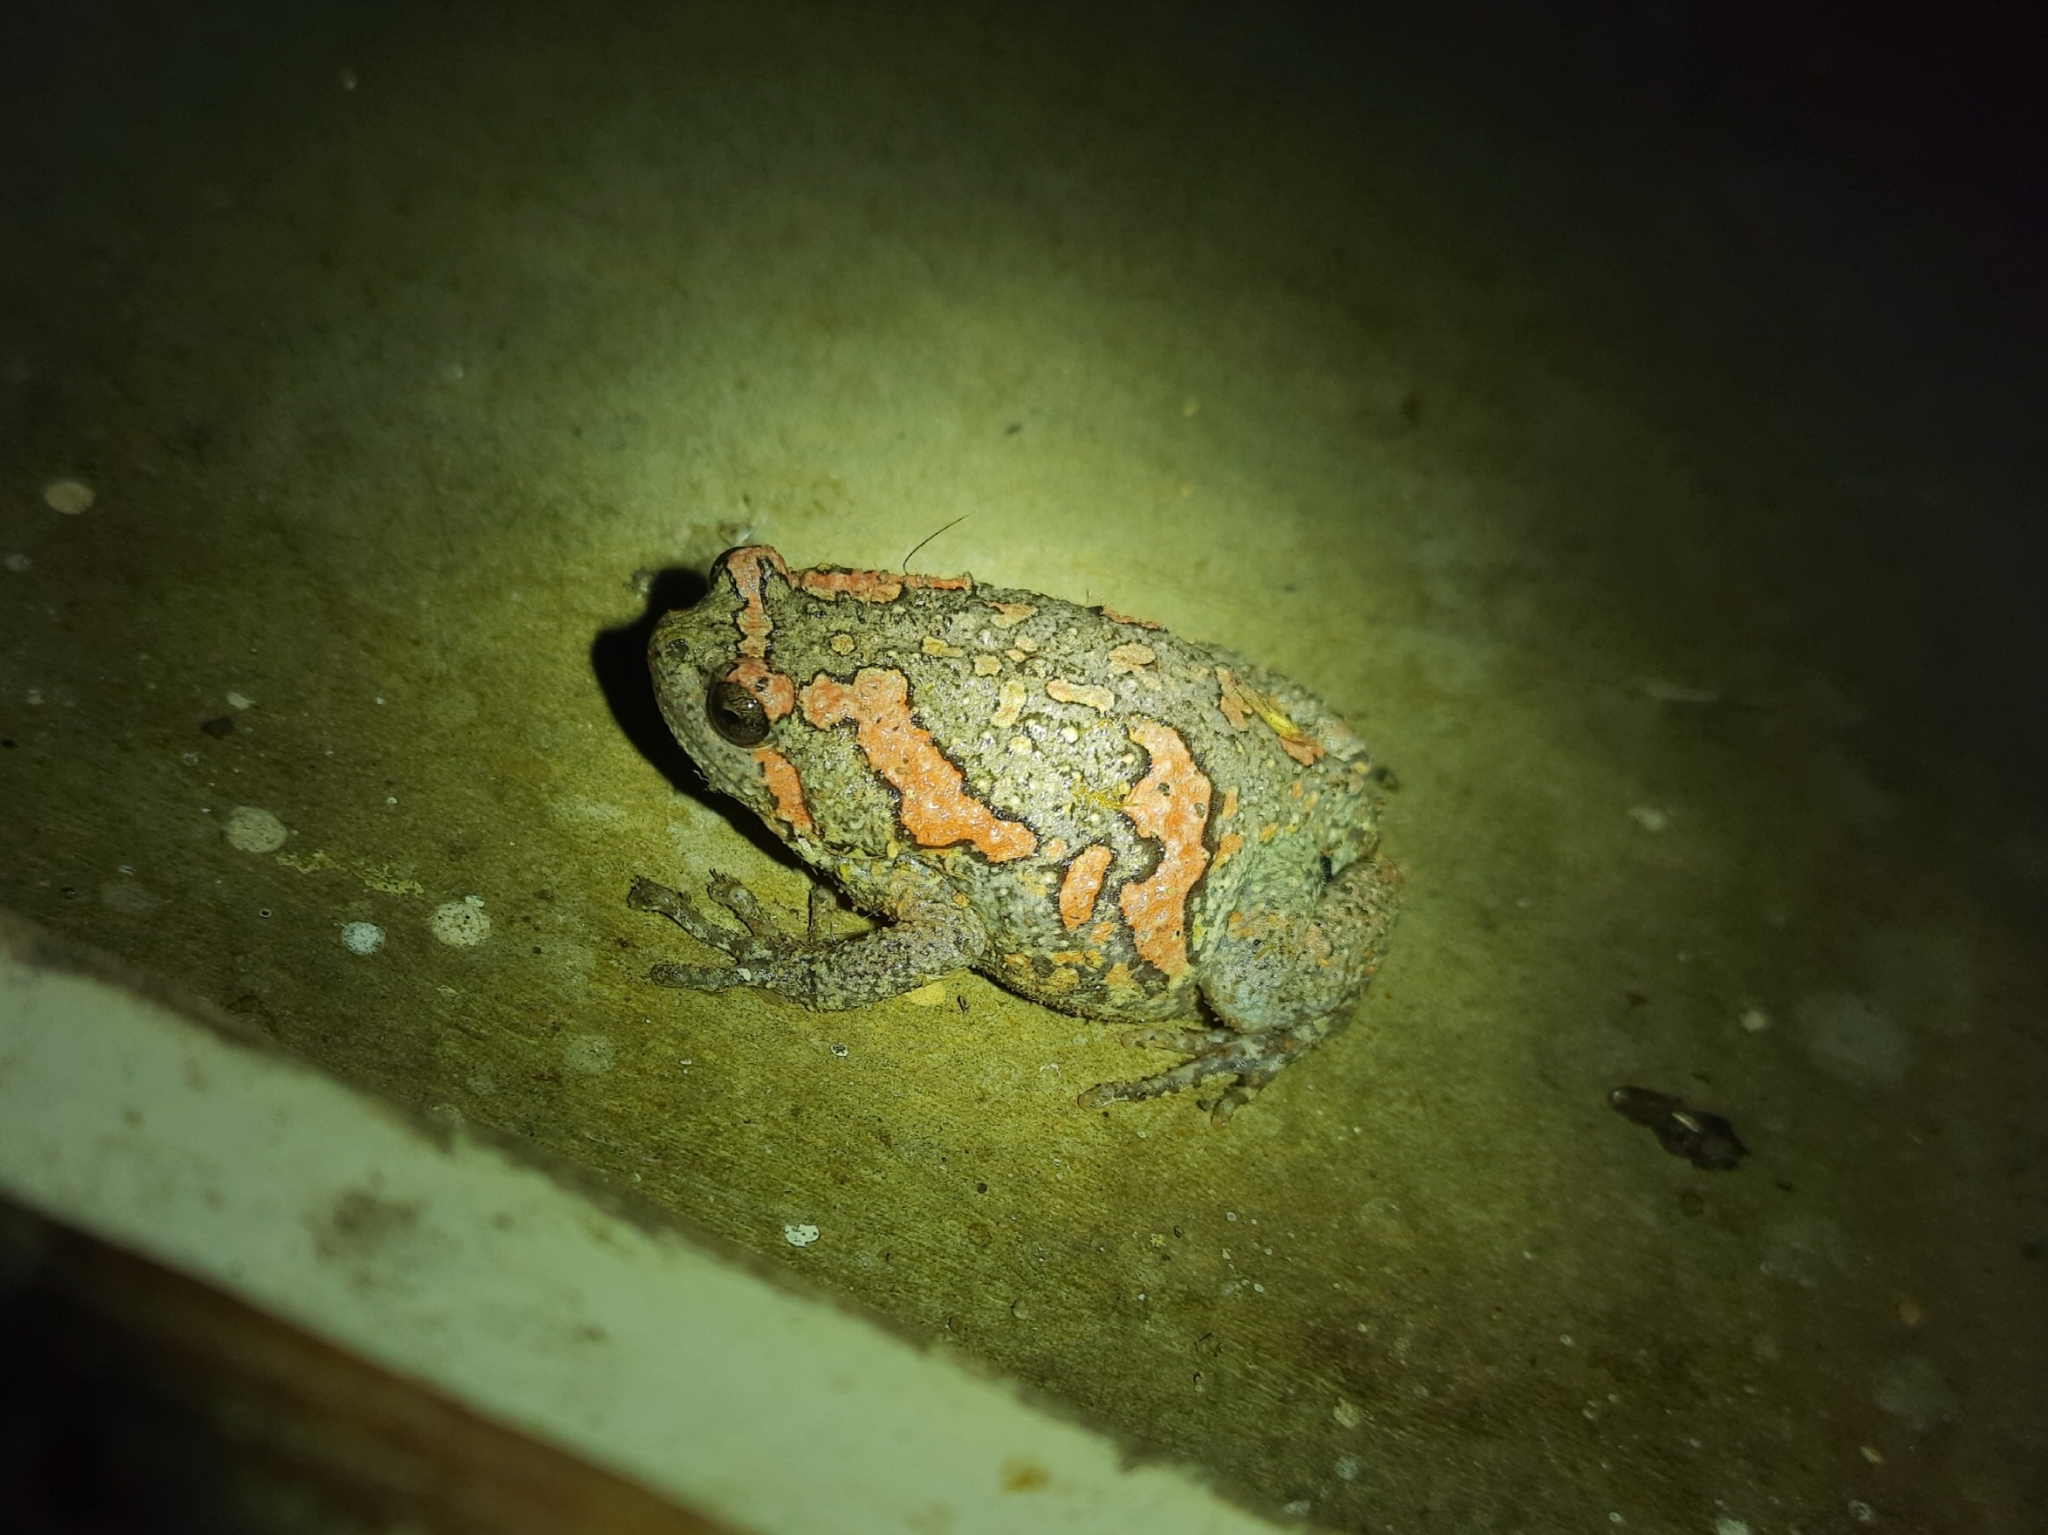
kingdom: Animalia
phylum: Chordata
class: Amphibia
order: Anura
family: Microhylidae
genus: Uperodon
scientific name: Uperodon taprobanicus
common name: Ceylon kaloula
